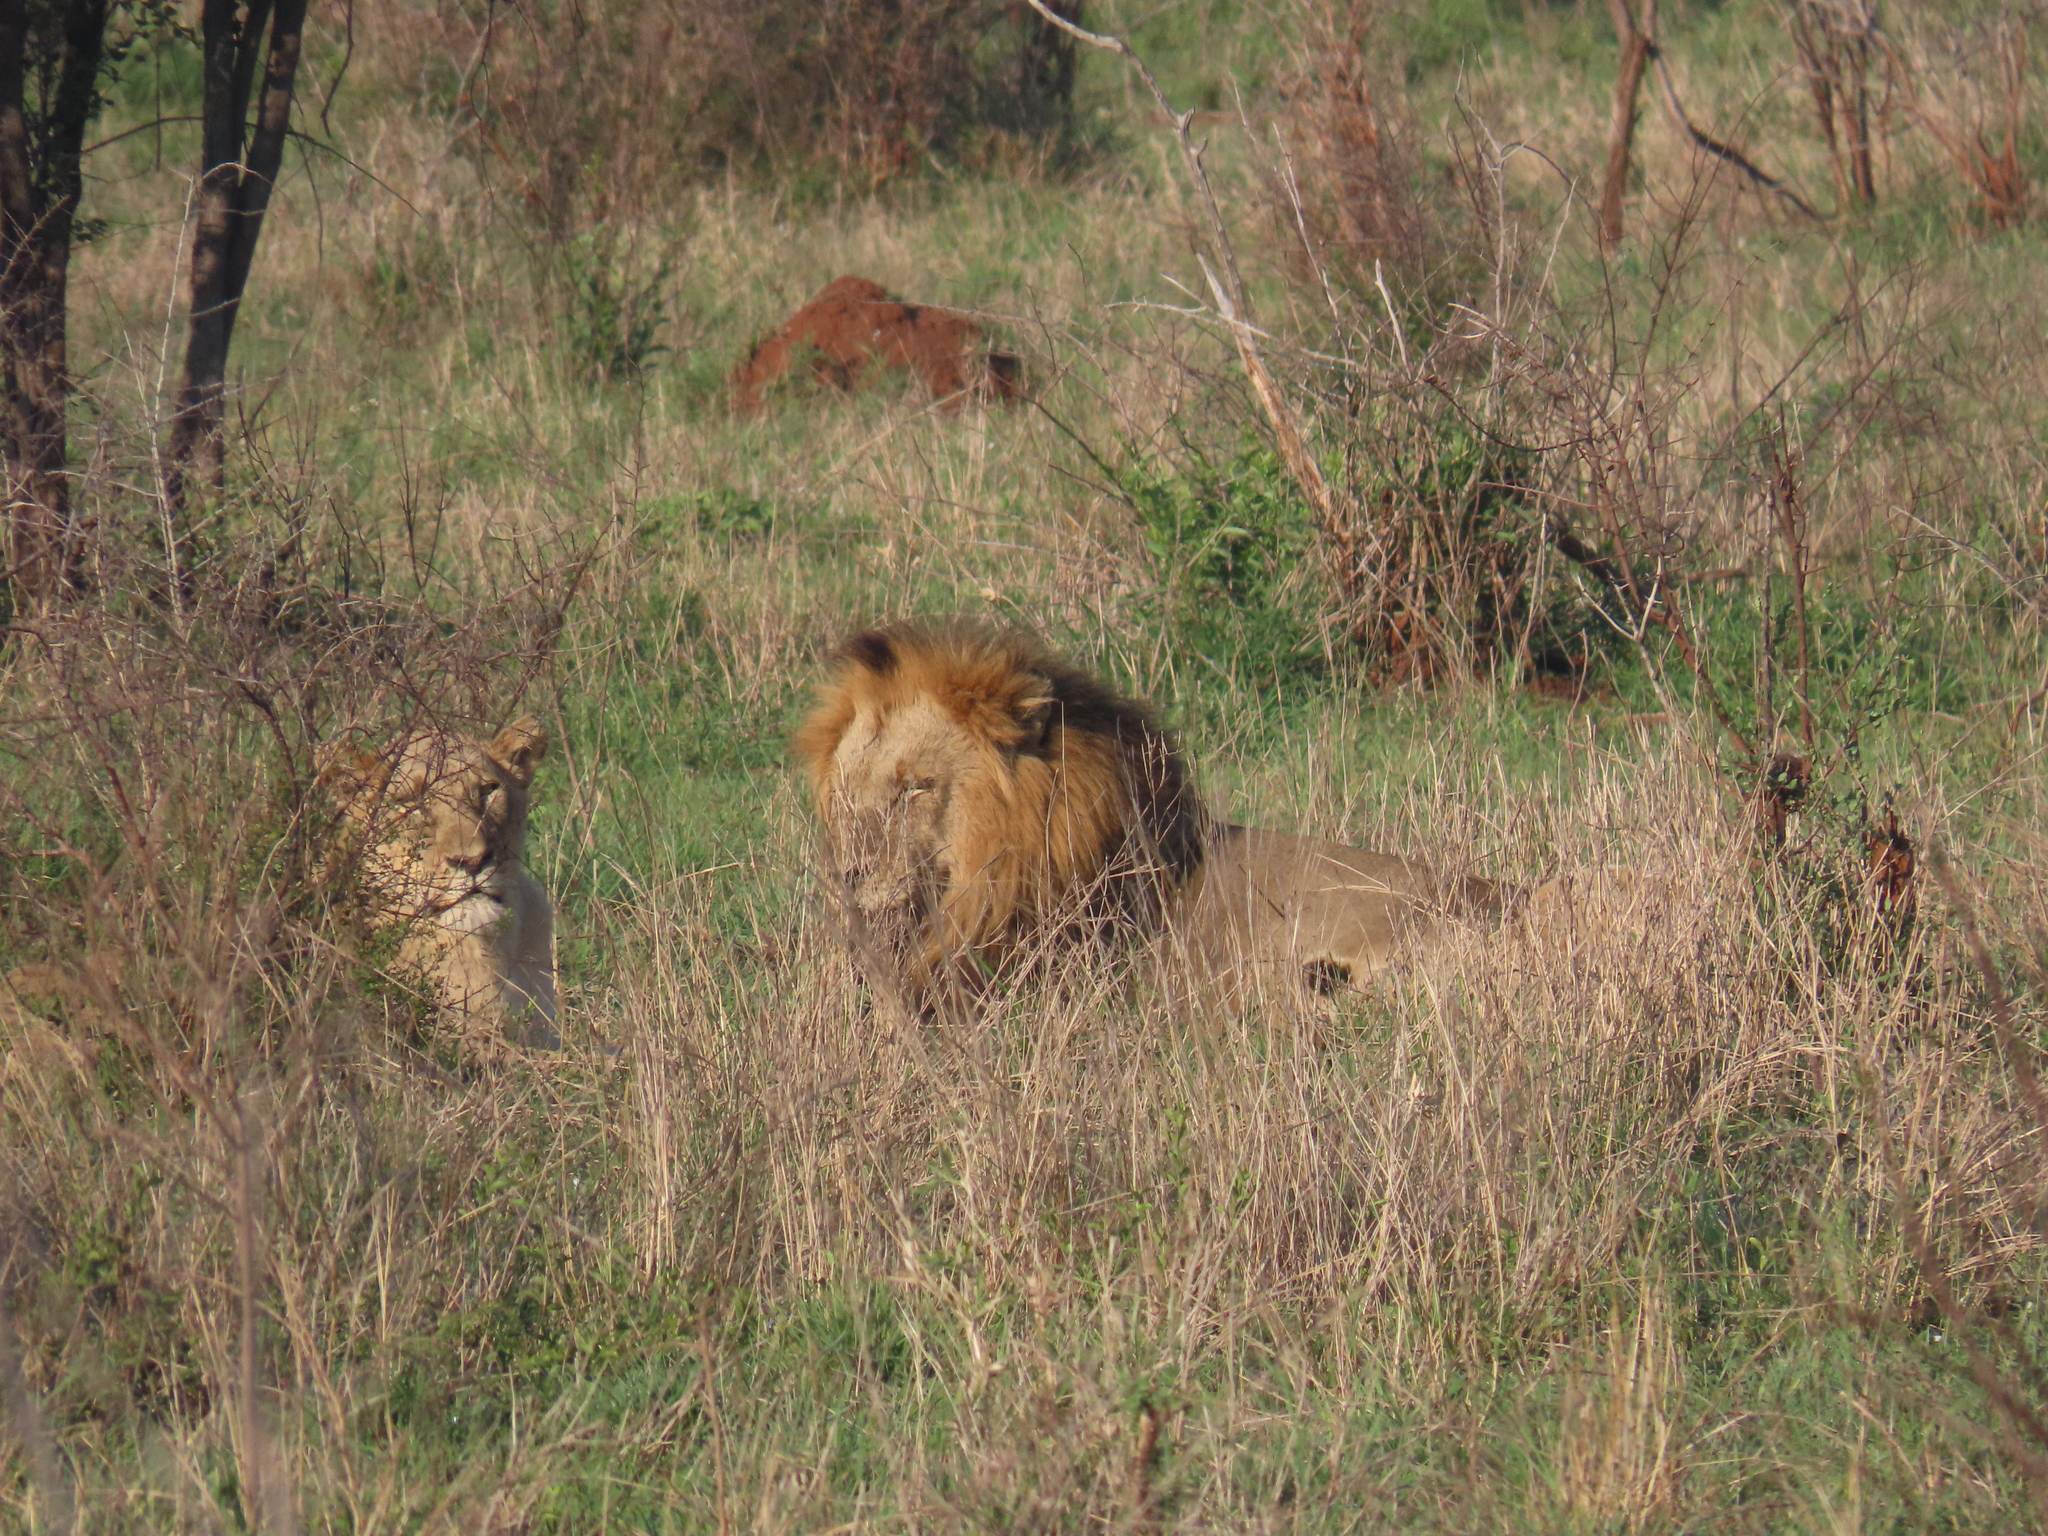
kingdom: Animalia
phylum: Chordata
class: Mammalia
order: Carnivora
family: Felidae
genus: Panthera
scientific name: Panthera leo
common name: Lion
